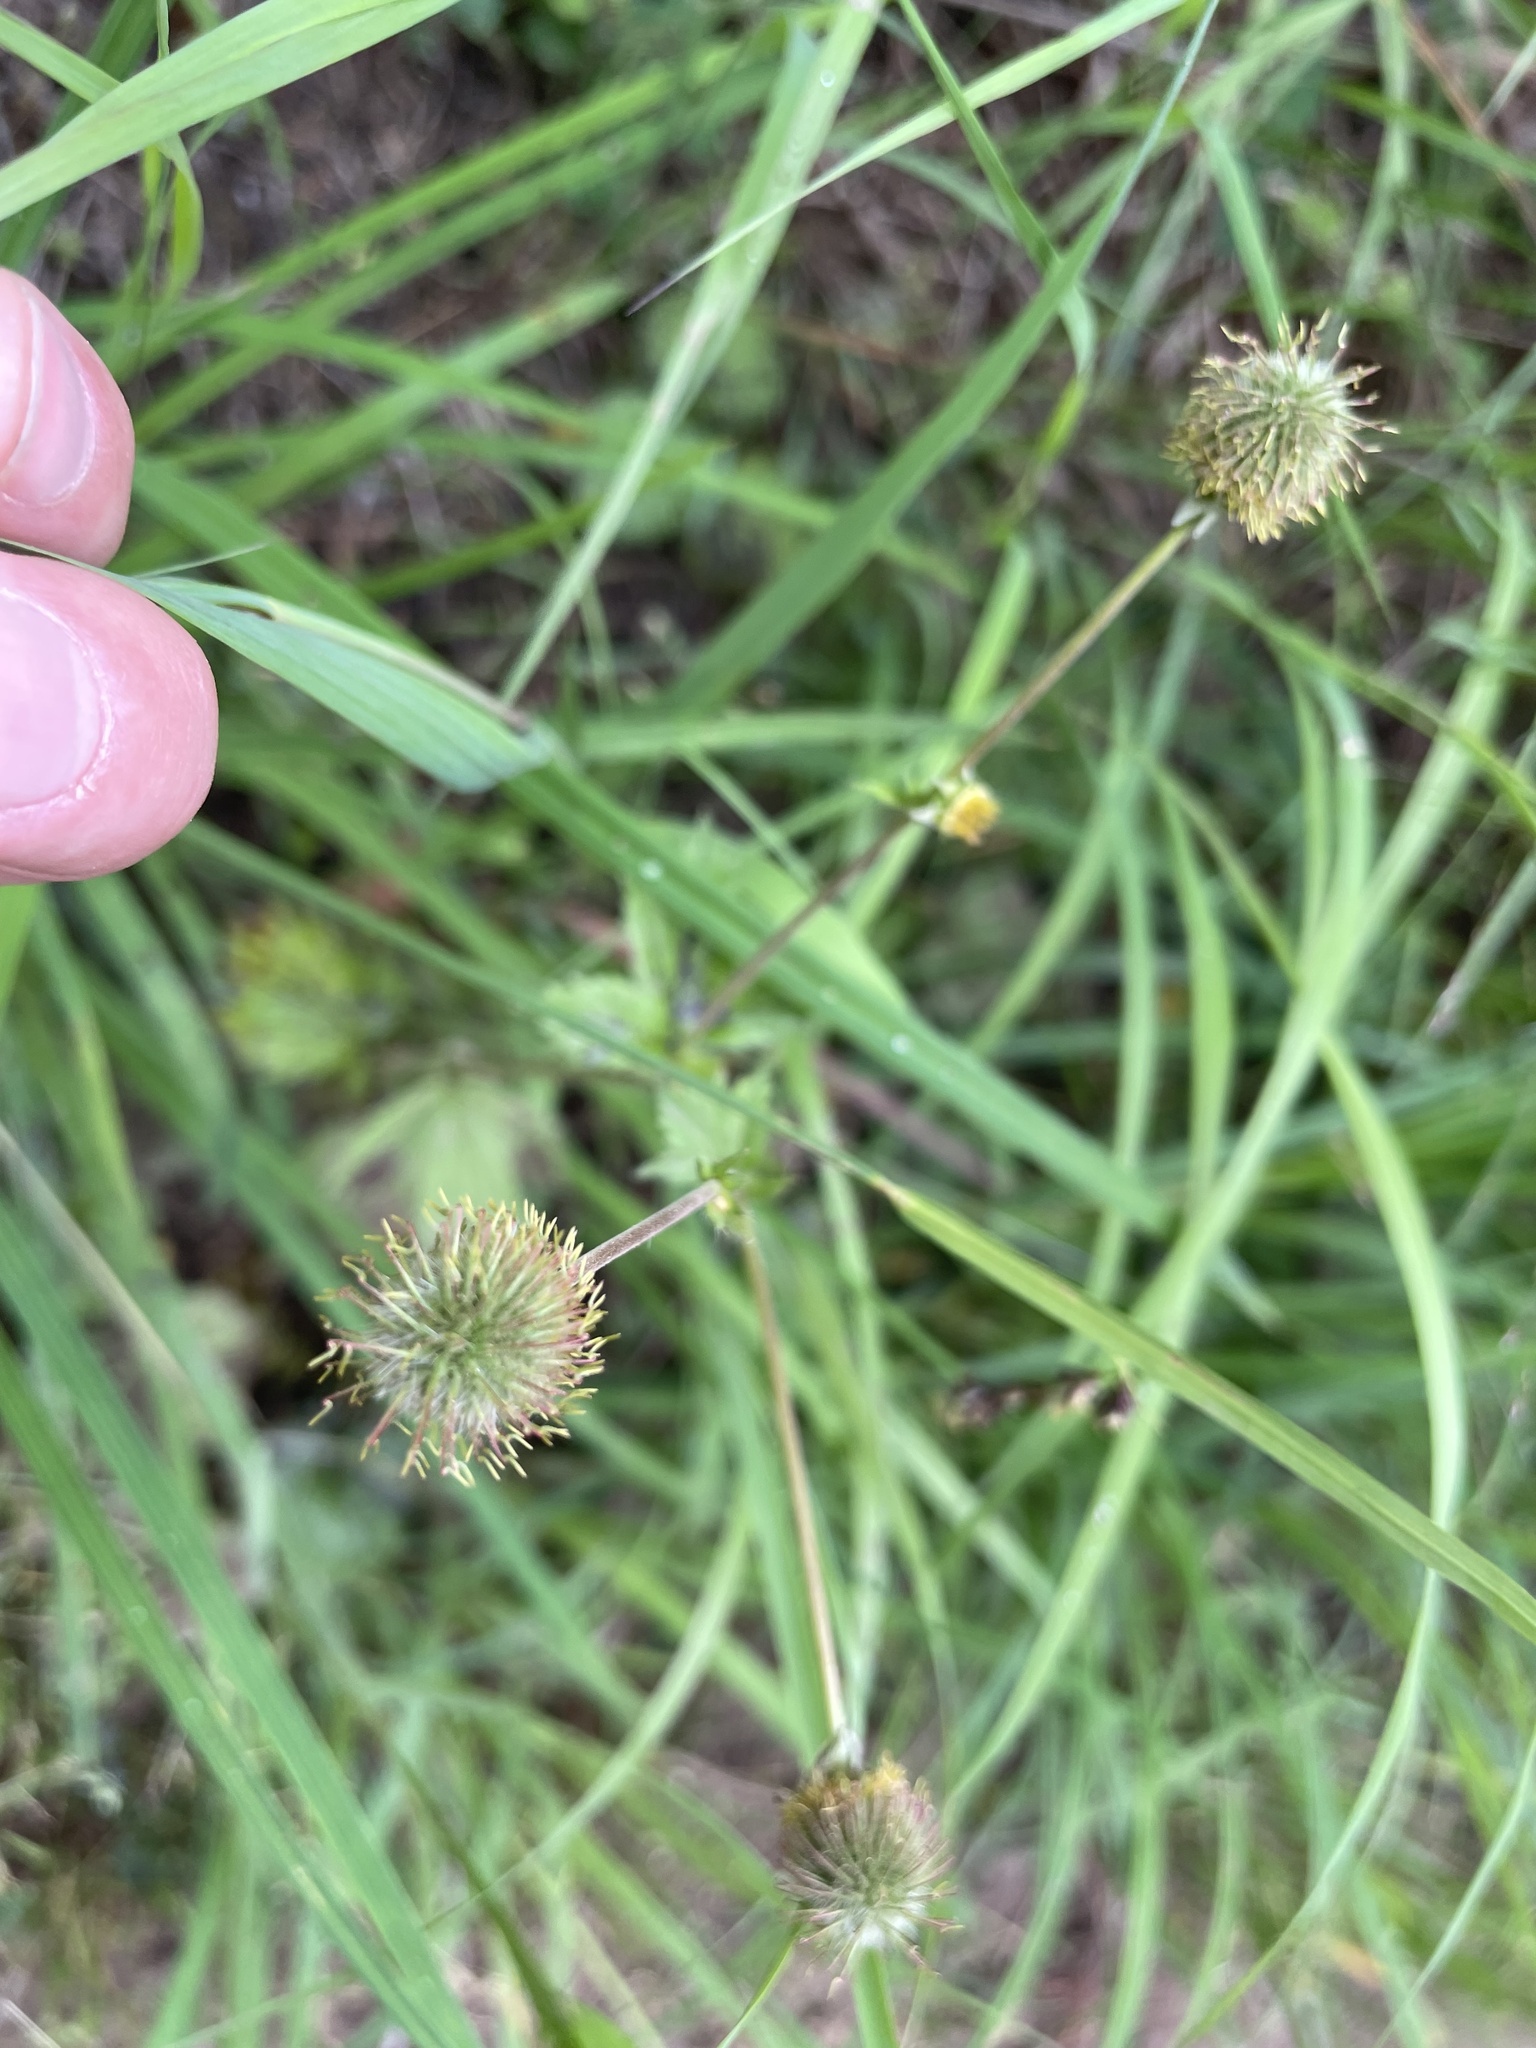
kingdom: Plantae
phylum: Tracheophyta
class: Magnoliopsida
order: Rosales
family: Rosaceae
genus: Geum
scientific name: Geum macrophyllum
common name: Large-leaved avens
